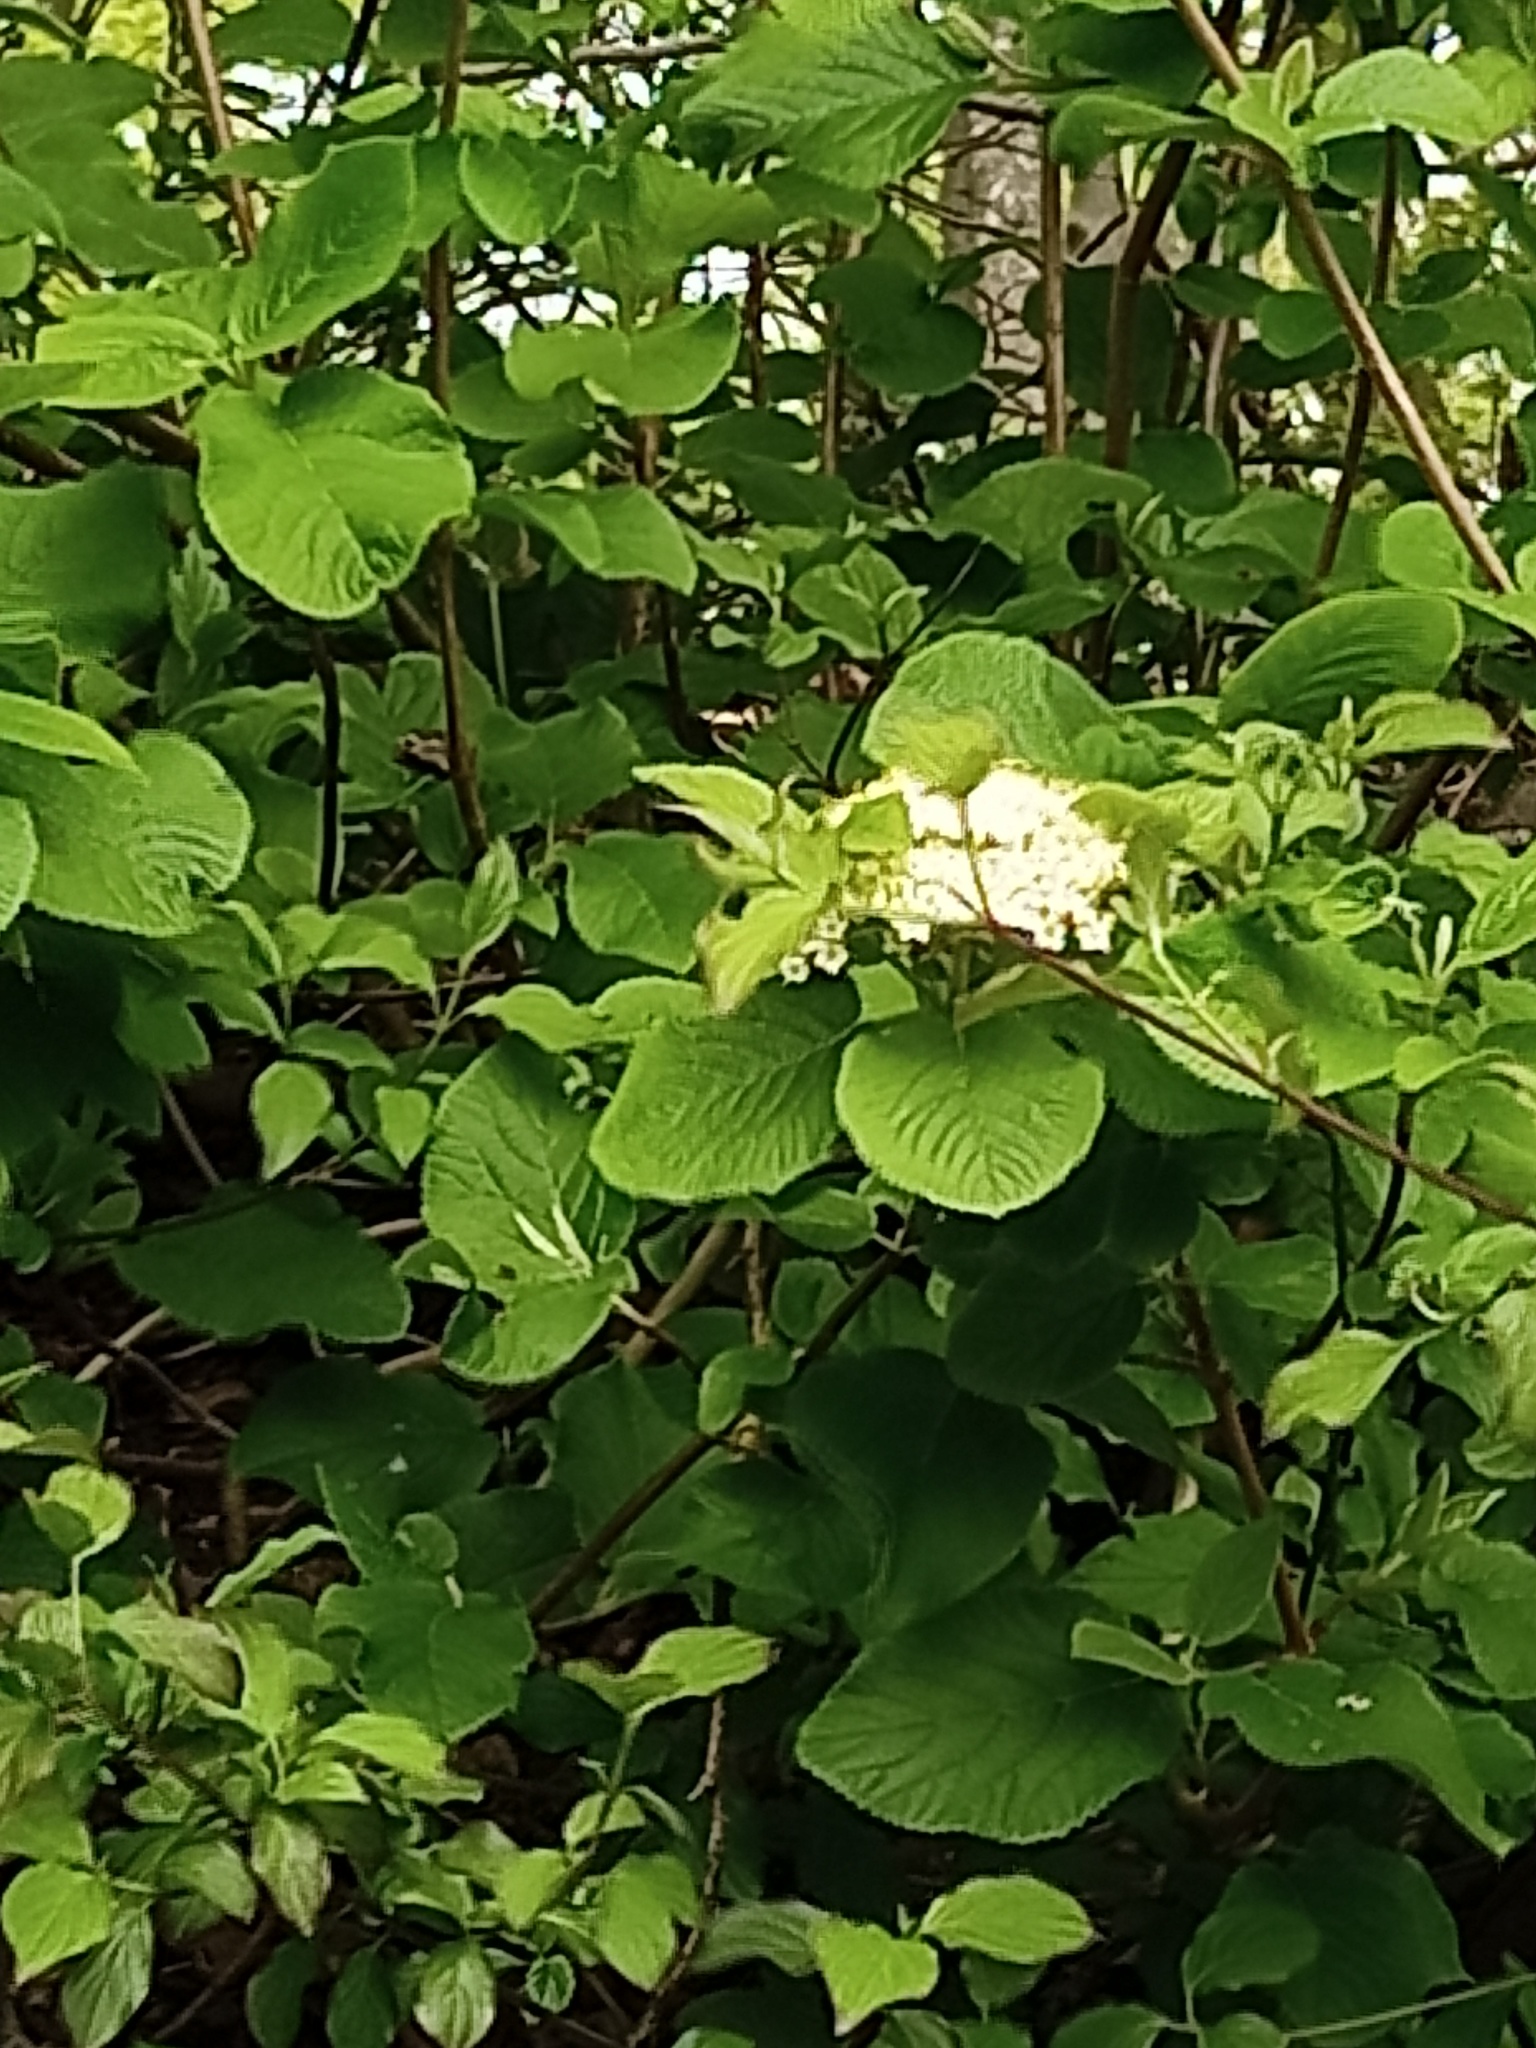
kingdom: Plantae
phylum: Tracheophyta
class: Magnoliopsida
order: Dipsacales
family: Viburnaceae
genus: Viburnum
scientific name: Viburnum lantana
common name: Wayfaring tree
